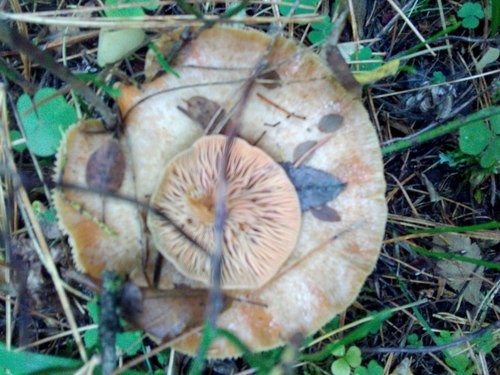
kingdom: Fungi
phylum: Basidiomycota
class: Agaricomycetes
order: Russulales
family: Russulaceae
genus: Lactarius
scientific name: Lactarius deliciosus
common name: Saffron milk-cap
